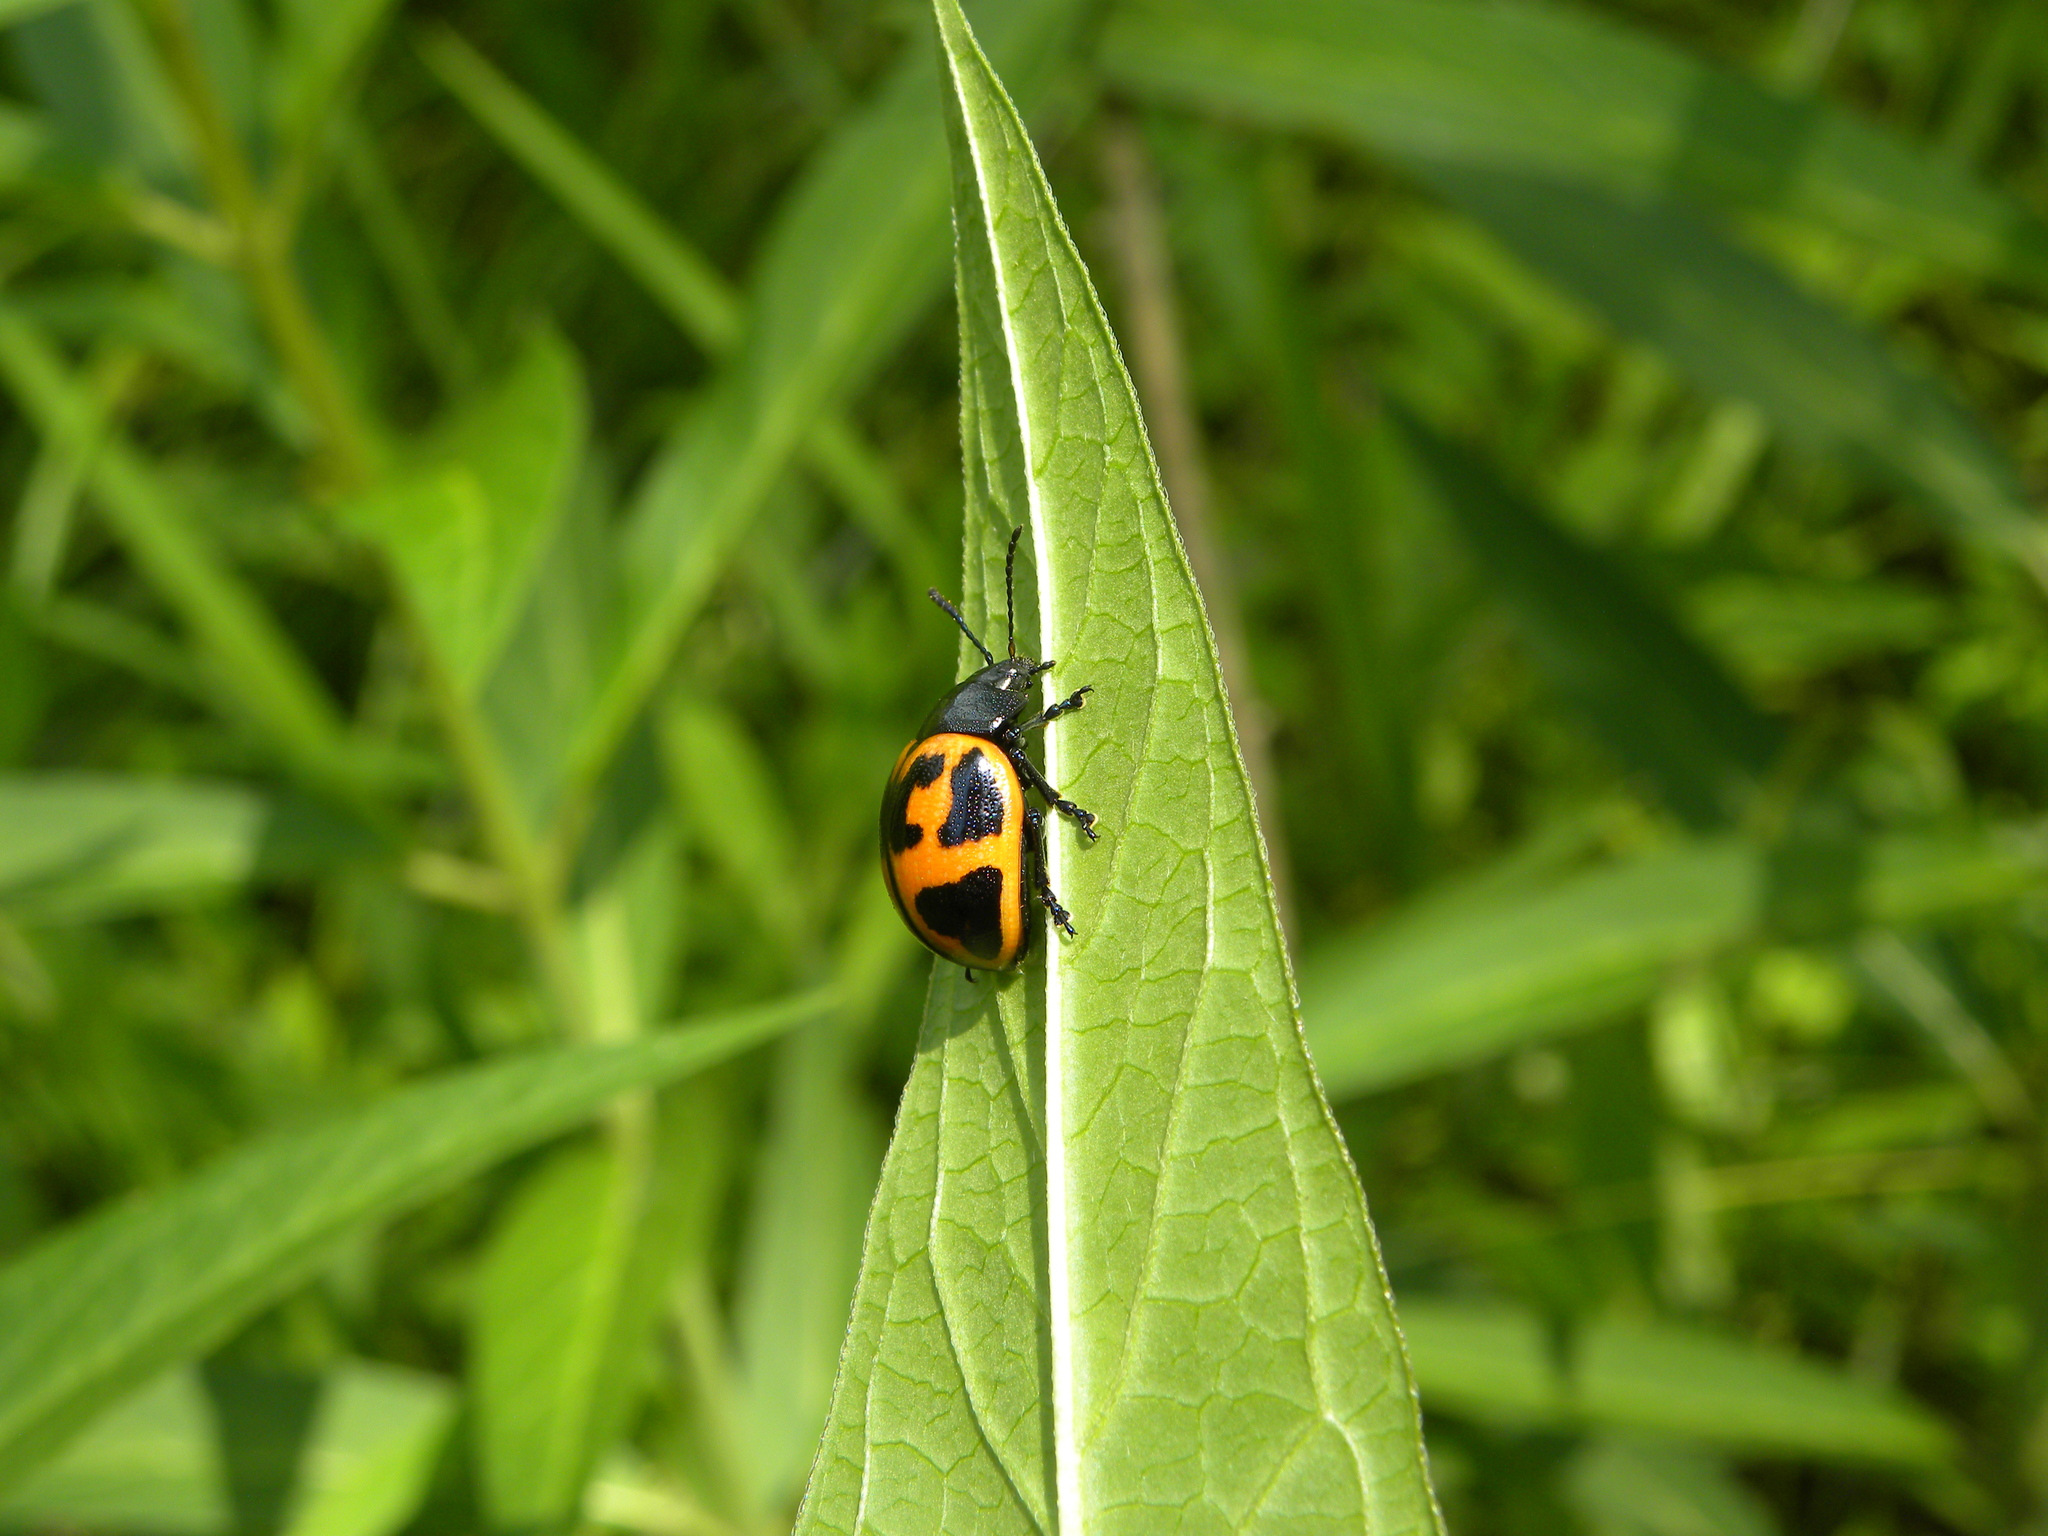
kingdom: Animalia
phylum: Arthropoda
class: Insecta
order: Coleoptera
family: Chrysomelidae
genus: Labidomera
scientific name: Labidomera clivicollis
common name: Swamp milkweed leaf beetle
